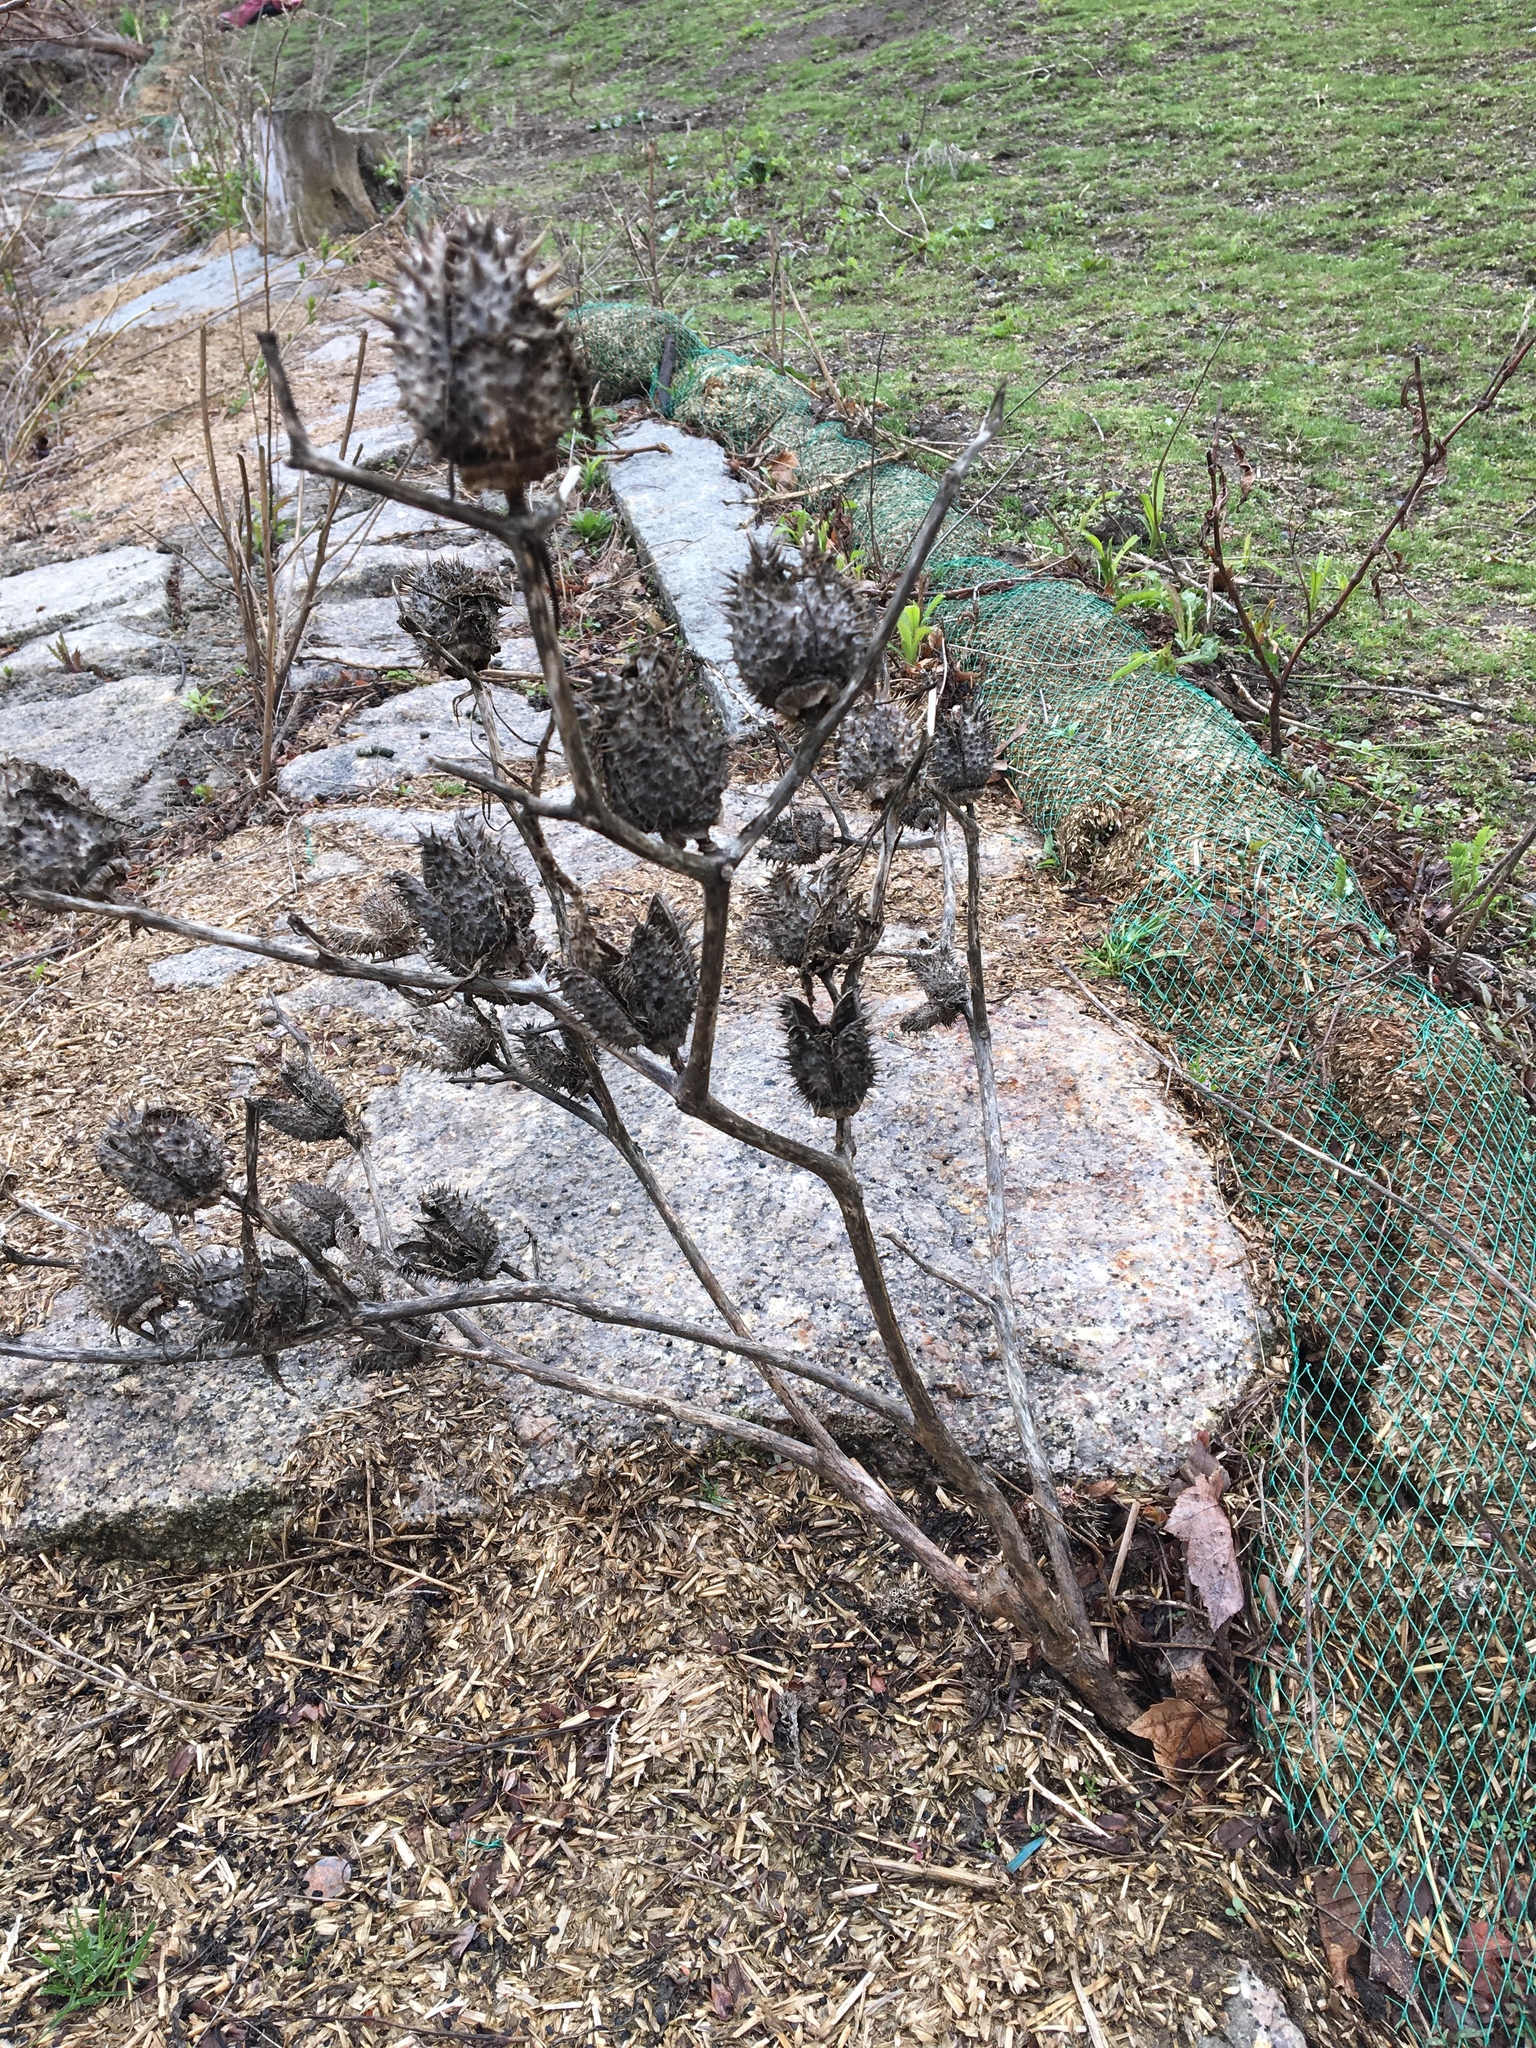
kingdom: Plantae
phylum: Tracheophyta
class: Magnoliopsida
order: Solanales
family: Solanaceae
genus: Datura
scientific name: Datura stramonium
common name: Thorn-apple
